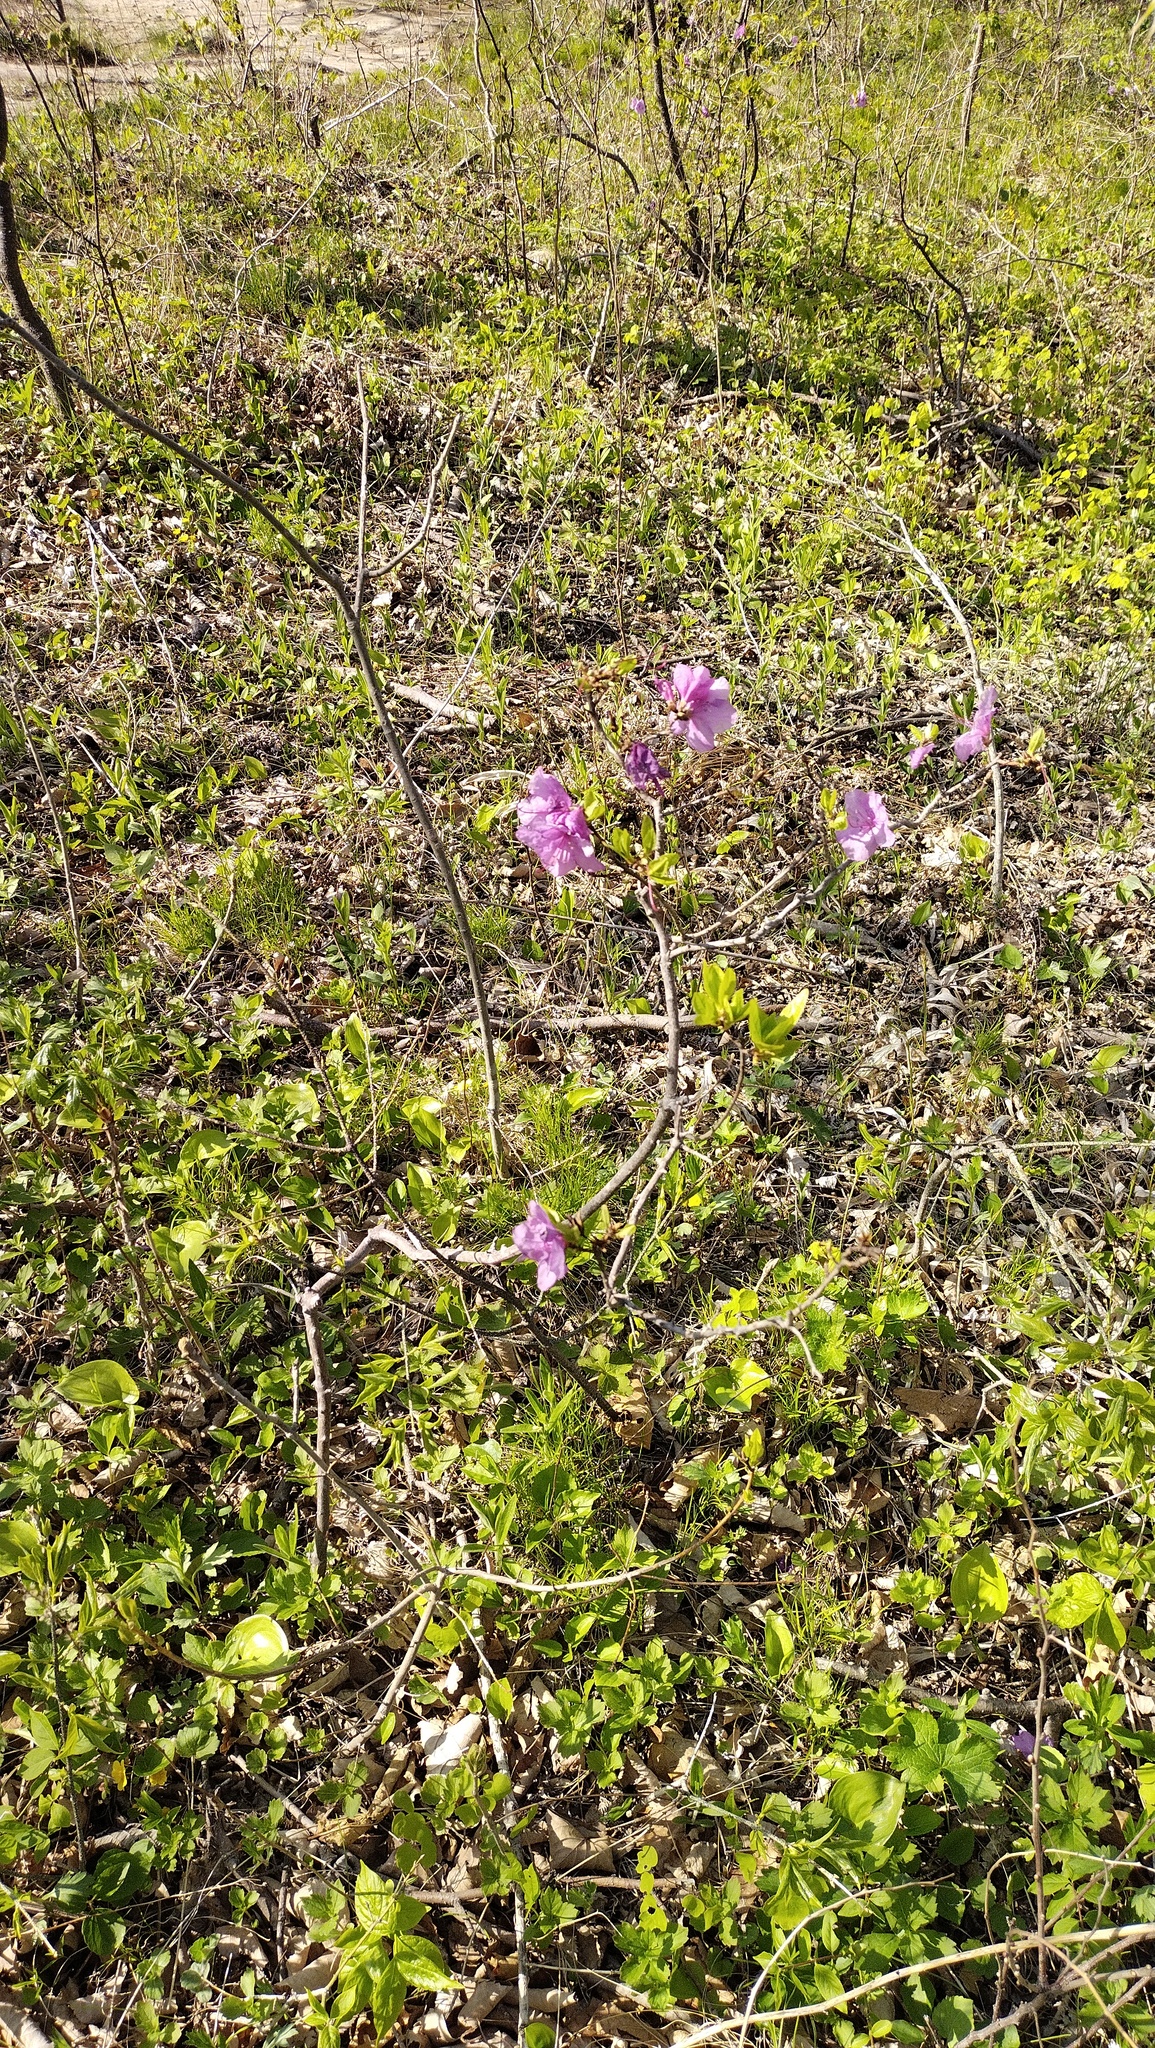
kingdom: Plantae
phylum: Tracheophyta
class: Magnoliopsida
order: Ericales
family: Ericaceae
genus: Rhododendron
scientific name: Rhododendron mucronulatum
